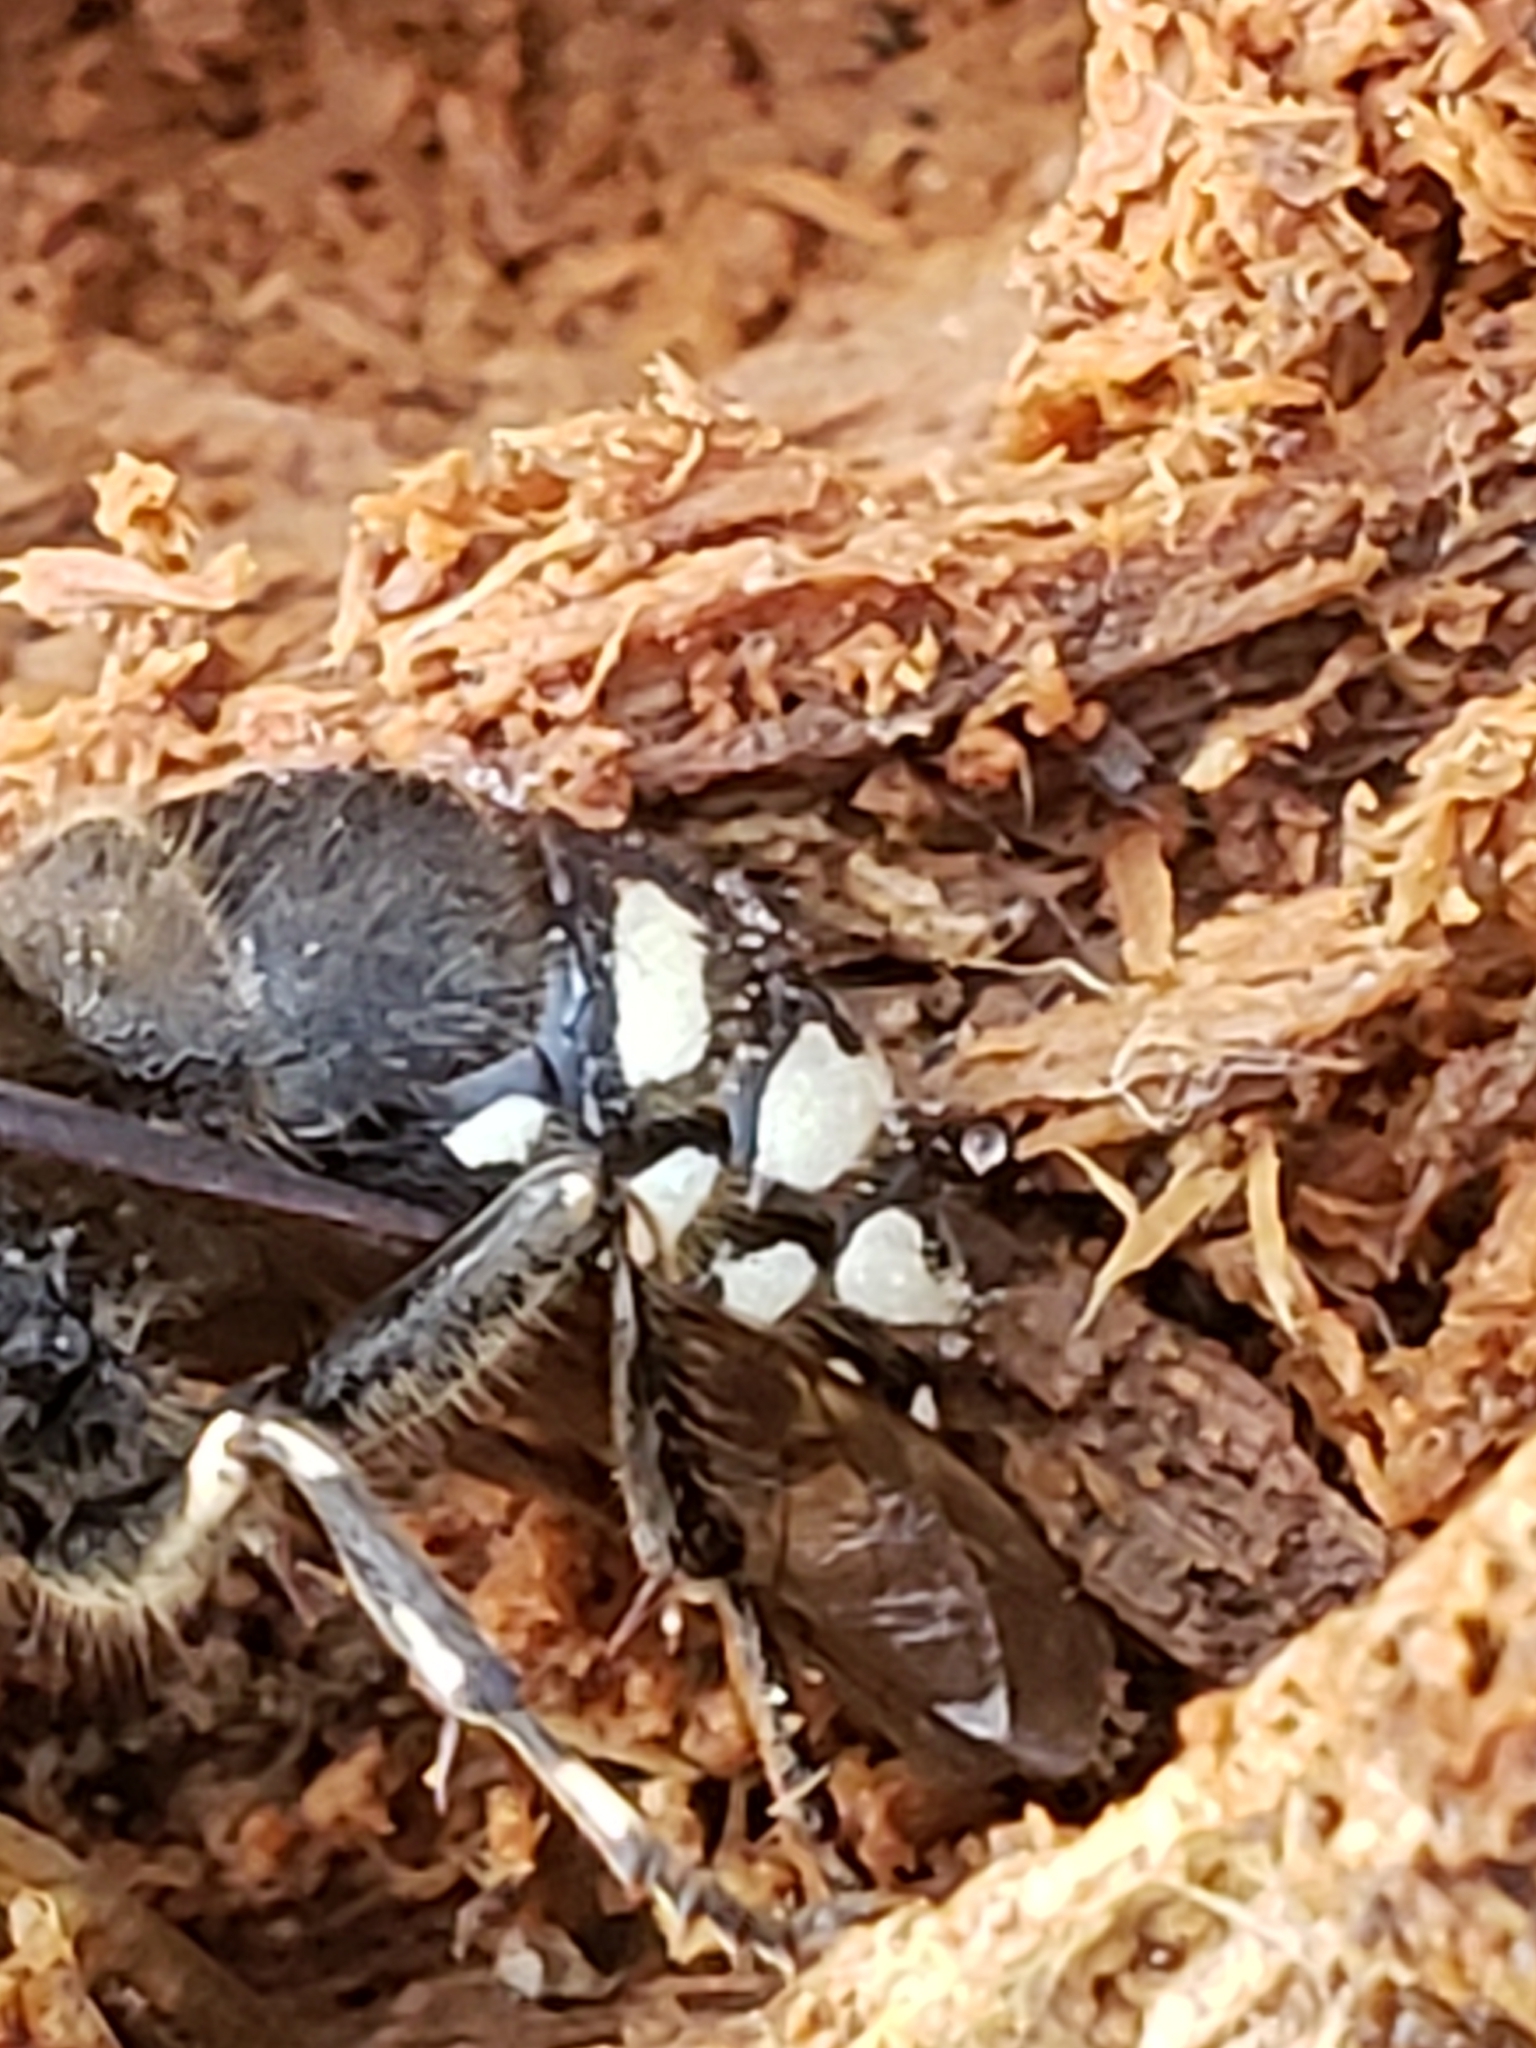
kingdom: Animalia
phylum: Arthropoda
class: Insecta
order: Hymenoptera
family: Vespidae
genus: Dolichovespula
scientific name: Dolichovespula maculata
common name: Bald-faced hornet
